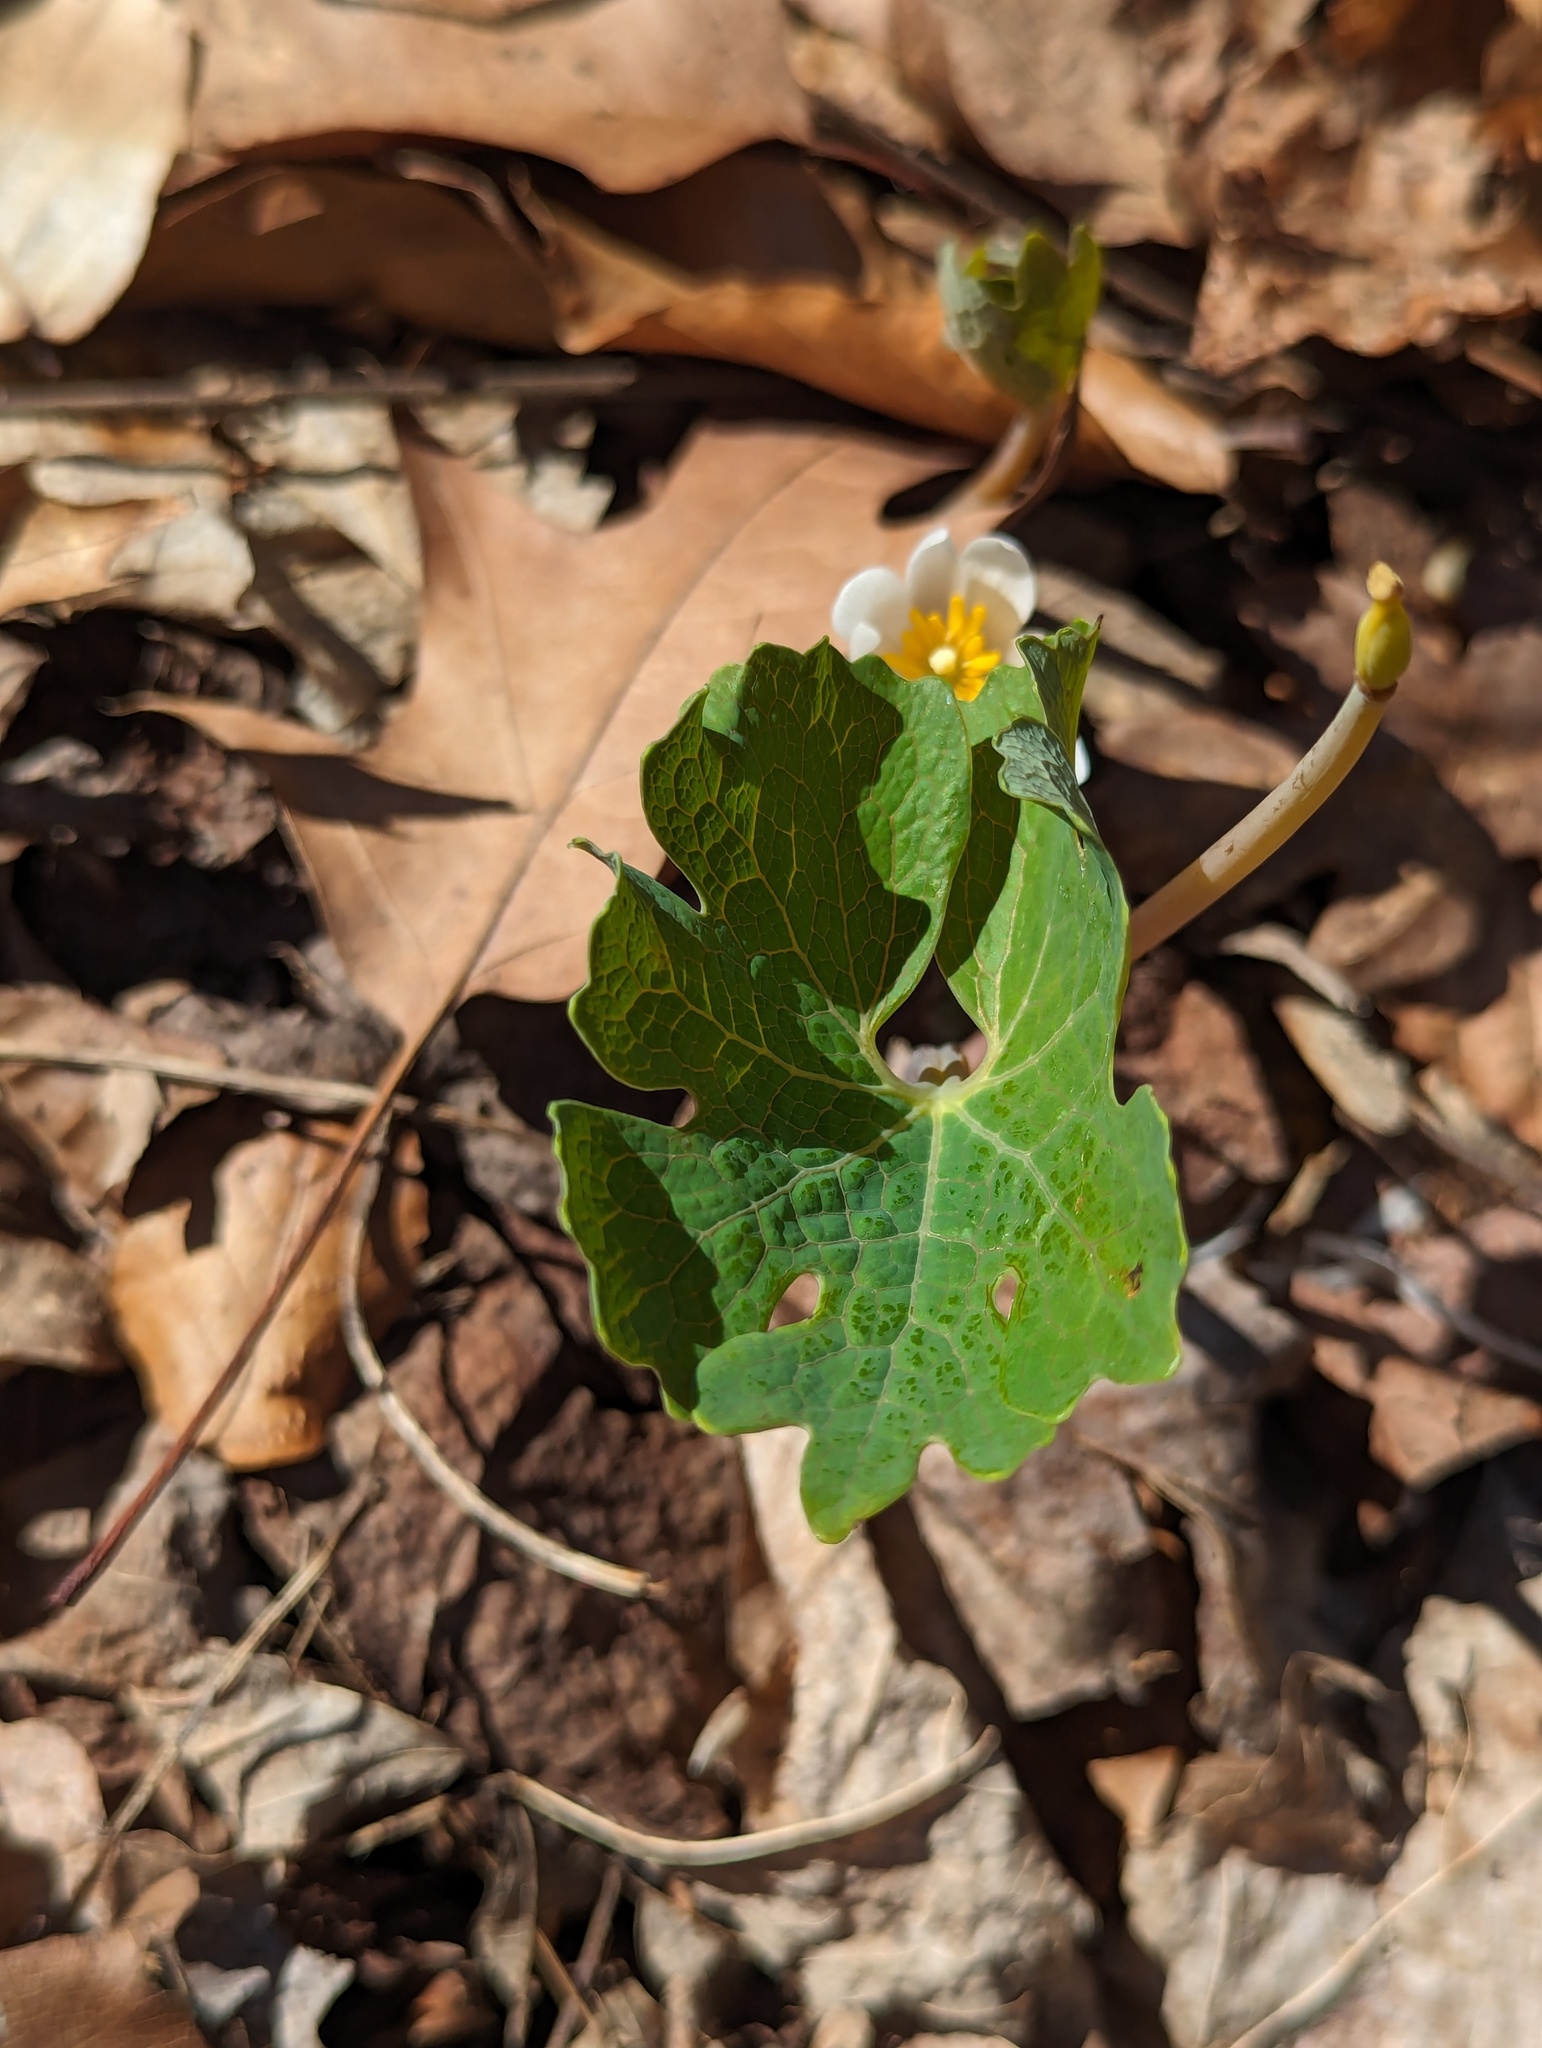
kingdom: Plantae
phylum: Tracheophyta
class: Magnoliopsida
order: Ranunculales
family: Papaveraceae
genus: Sanguinaria
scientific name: Sanguinaria canadensis
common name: Bloodroot
